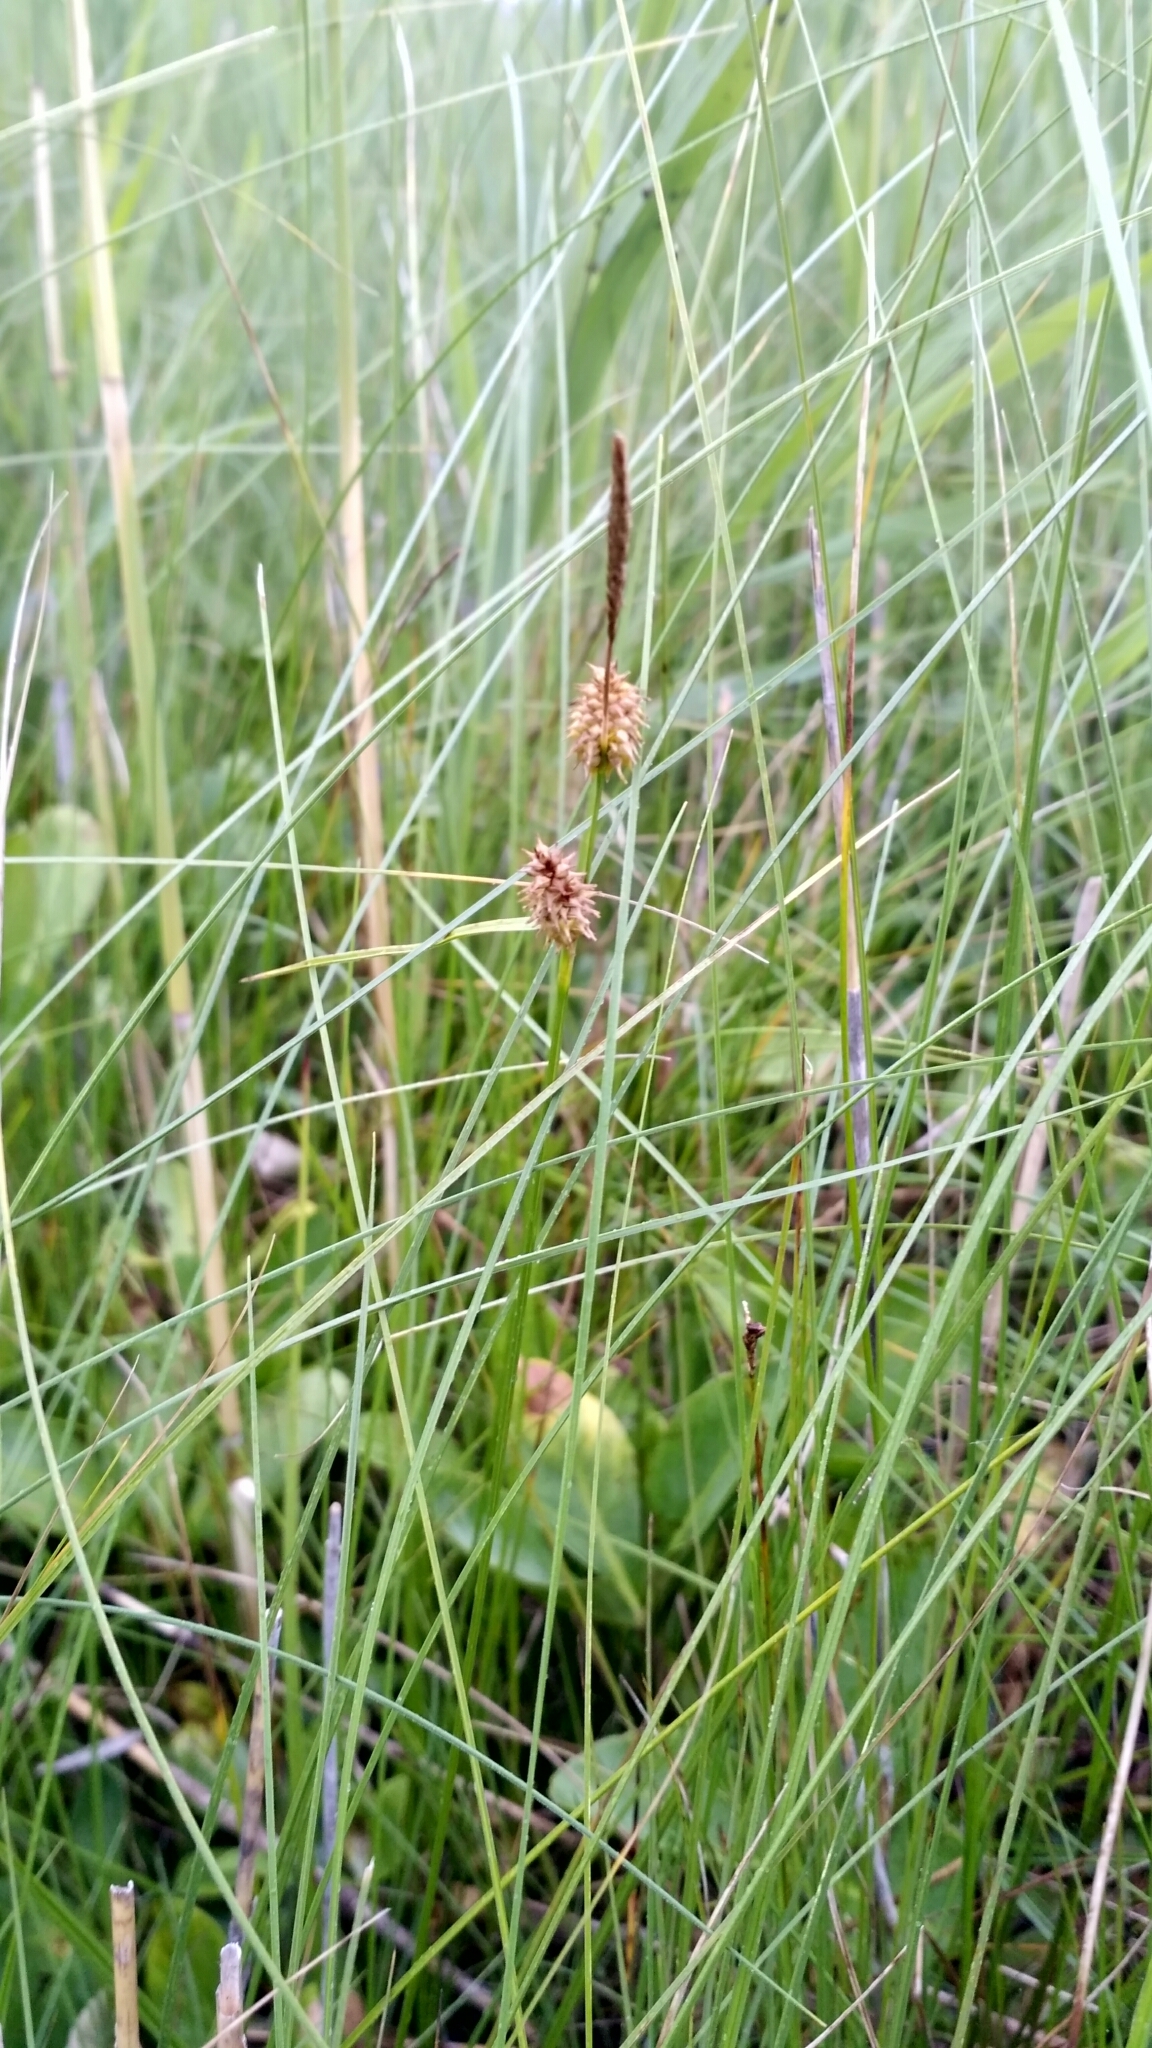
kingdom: Plantae
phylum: Tracheophyta
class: Liliopsida
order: Poales
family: Cyperaceae
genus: Carex
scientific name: Carex lepidocarpa
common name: Long-stalked yellow-sedge
